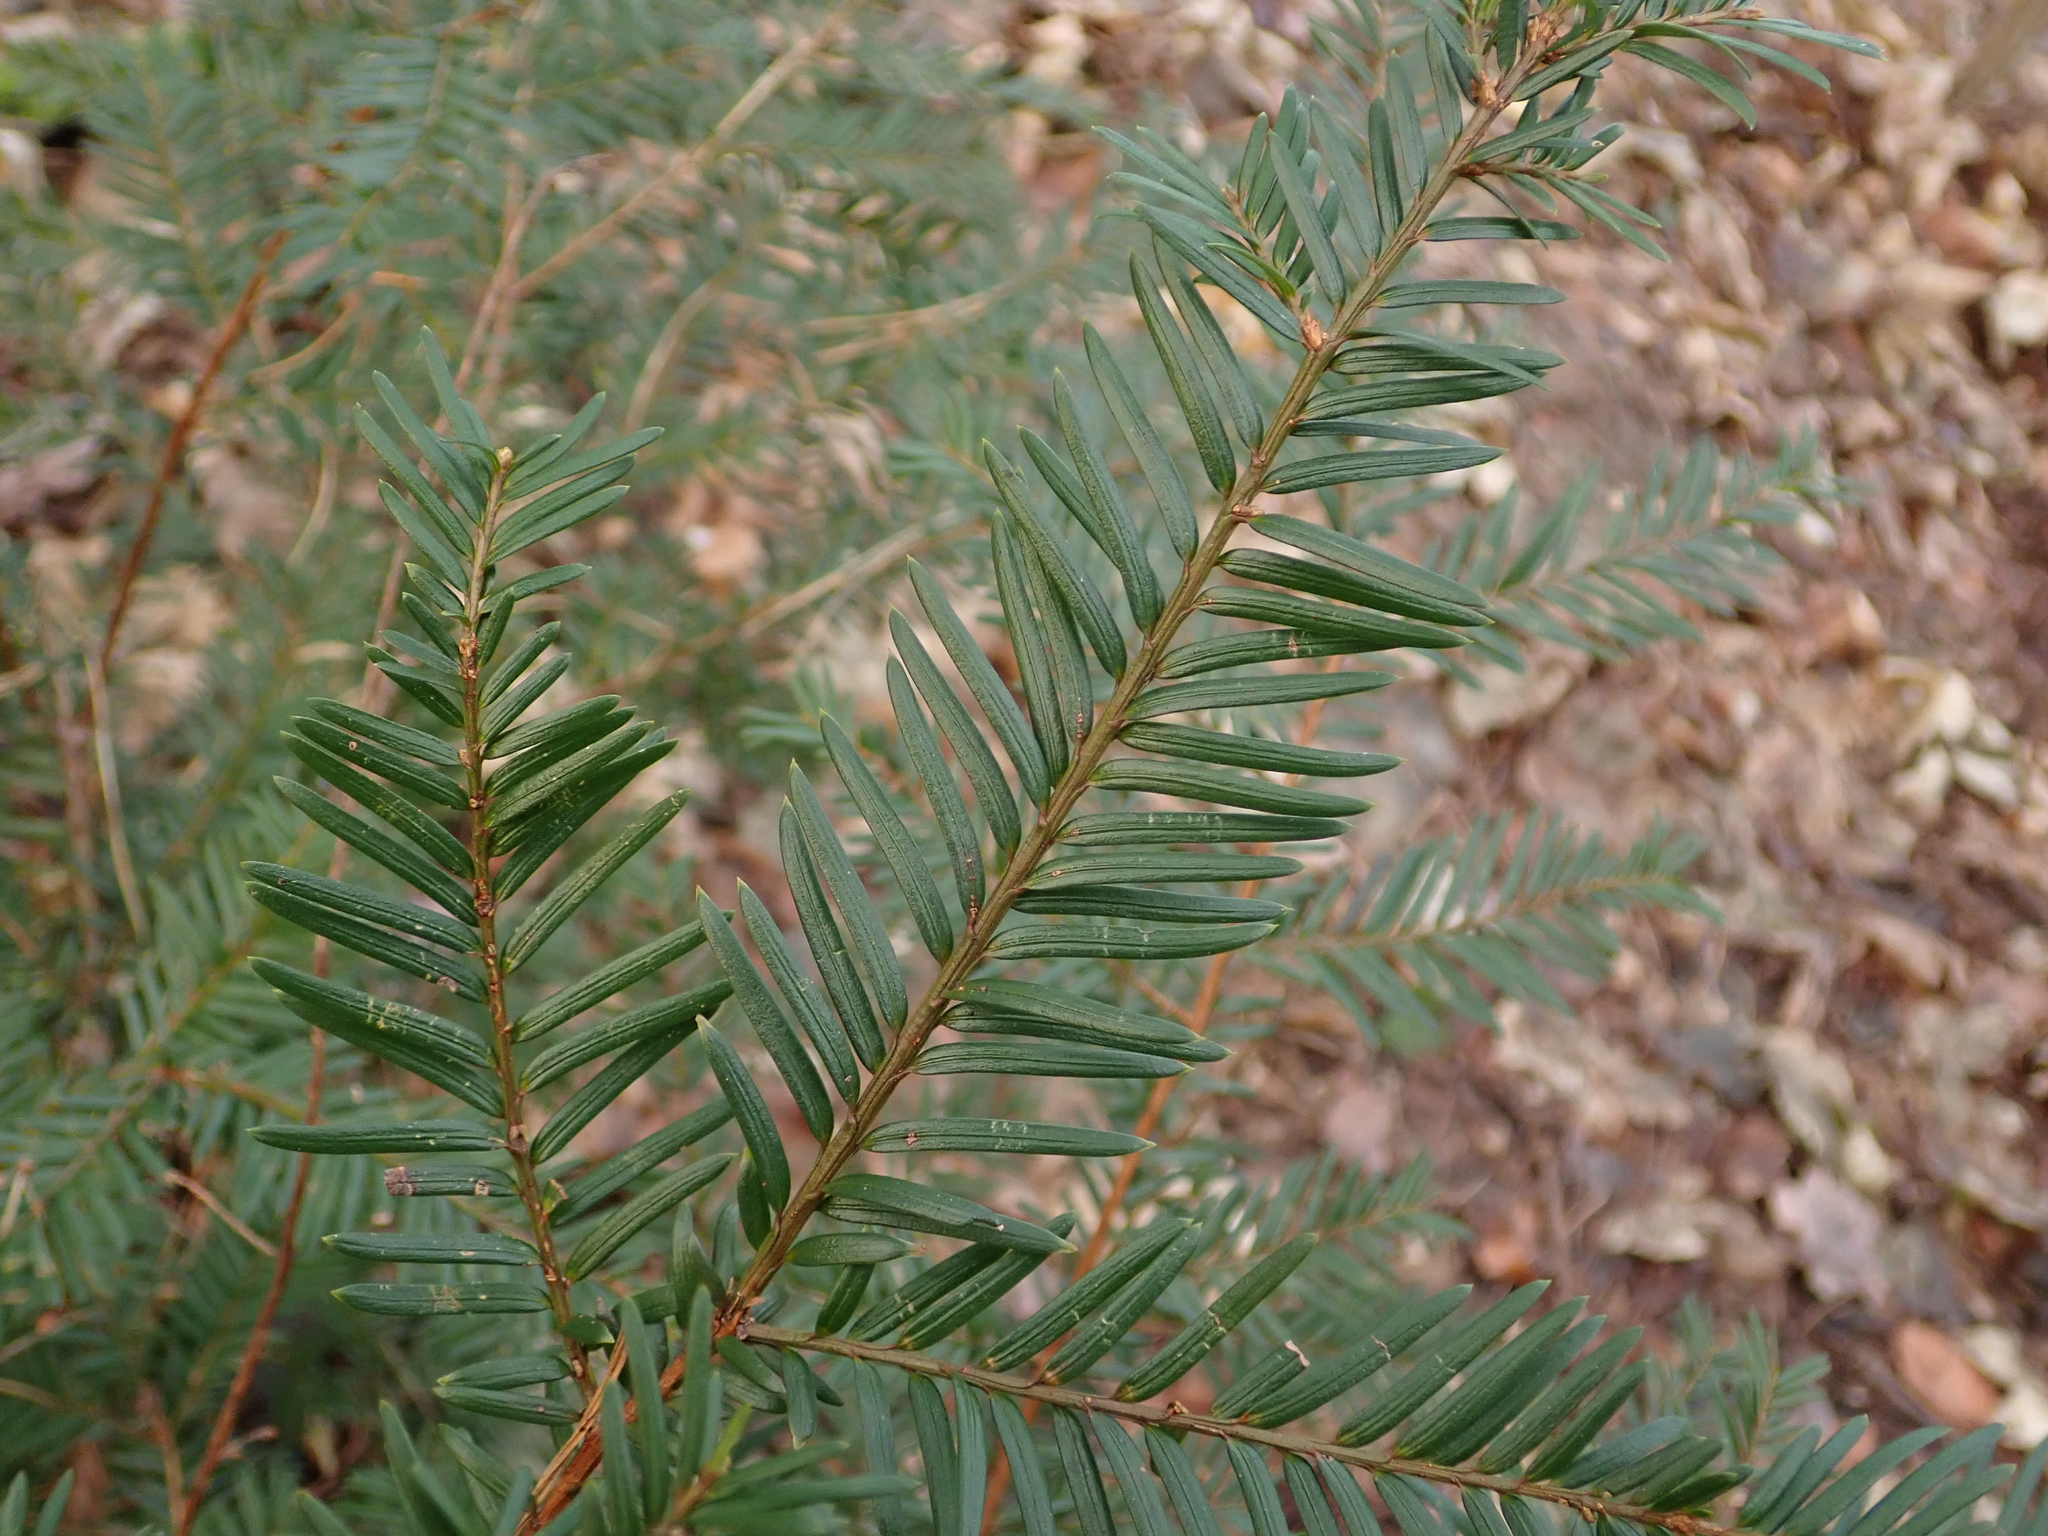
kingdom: Plantae
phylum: Tracheophyta
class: Pinopsida
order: Pinales
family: Taxaceae
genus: Taxus
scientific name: Taxus baccata
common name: Yew
